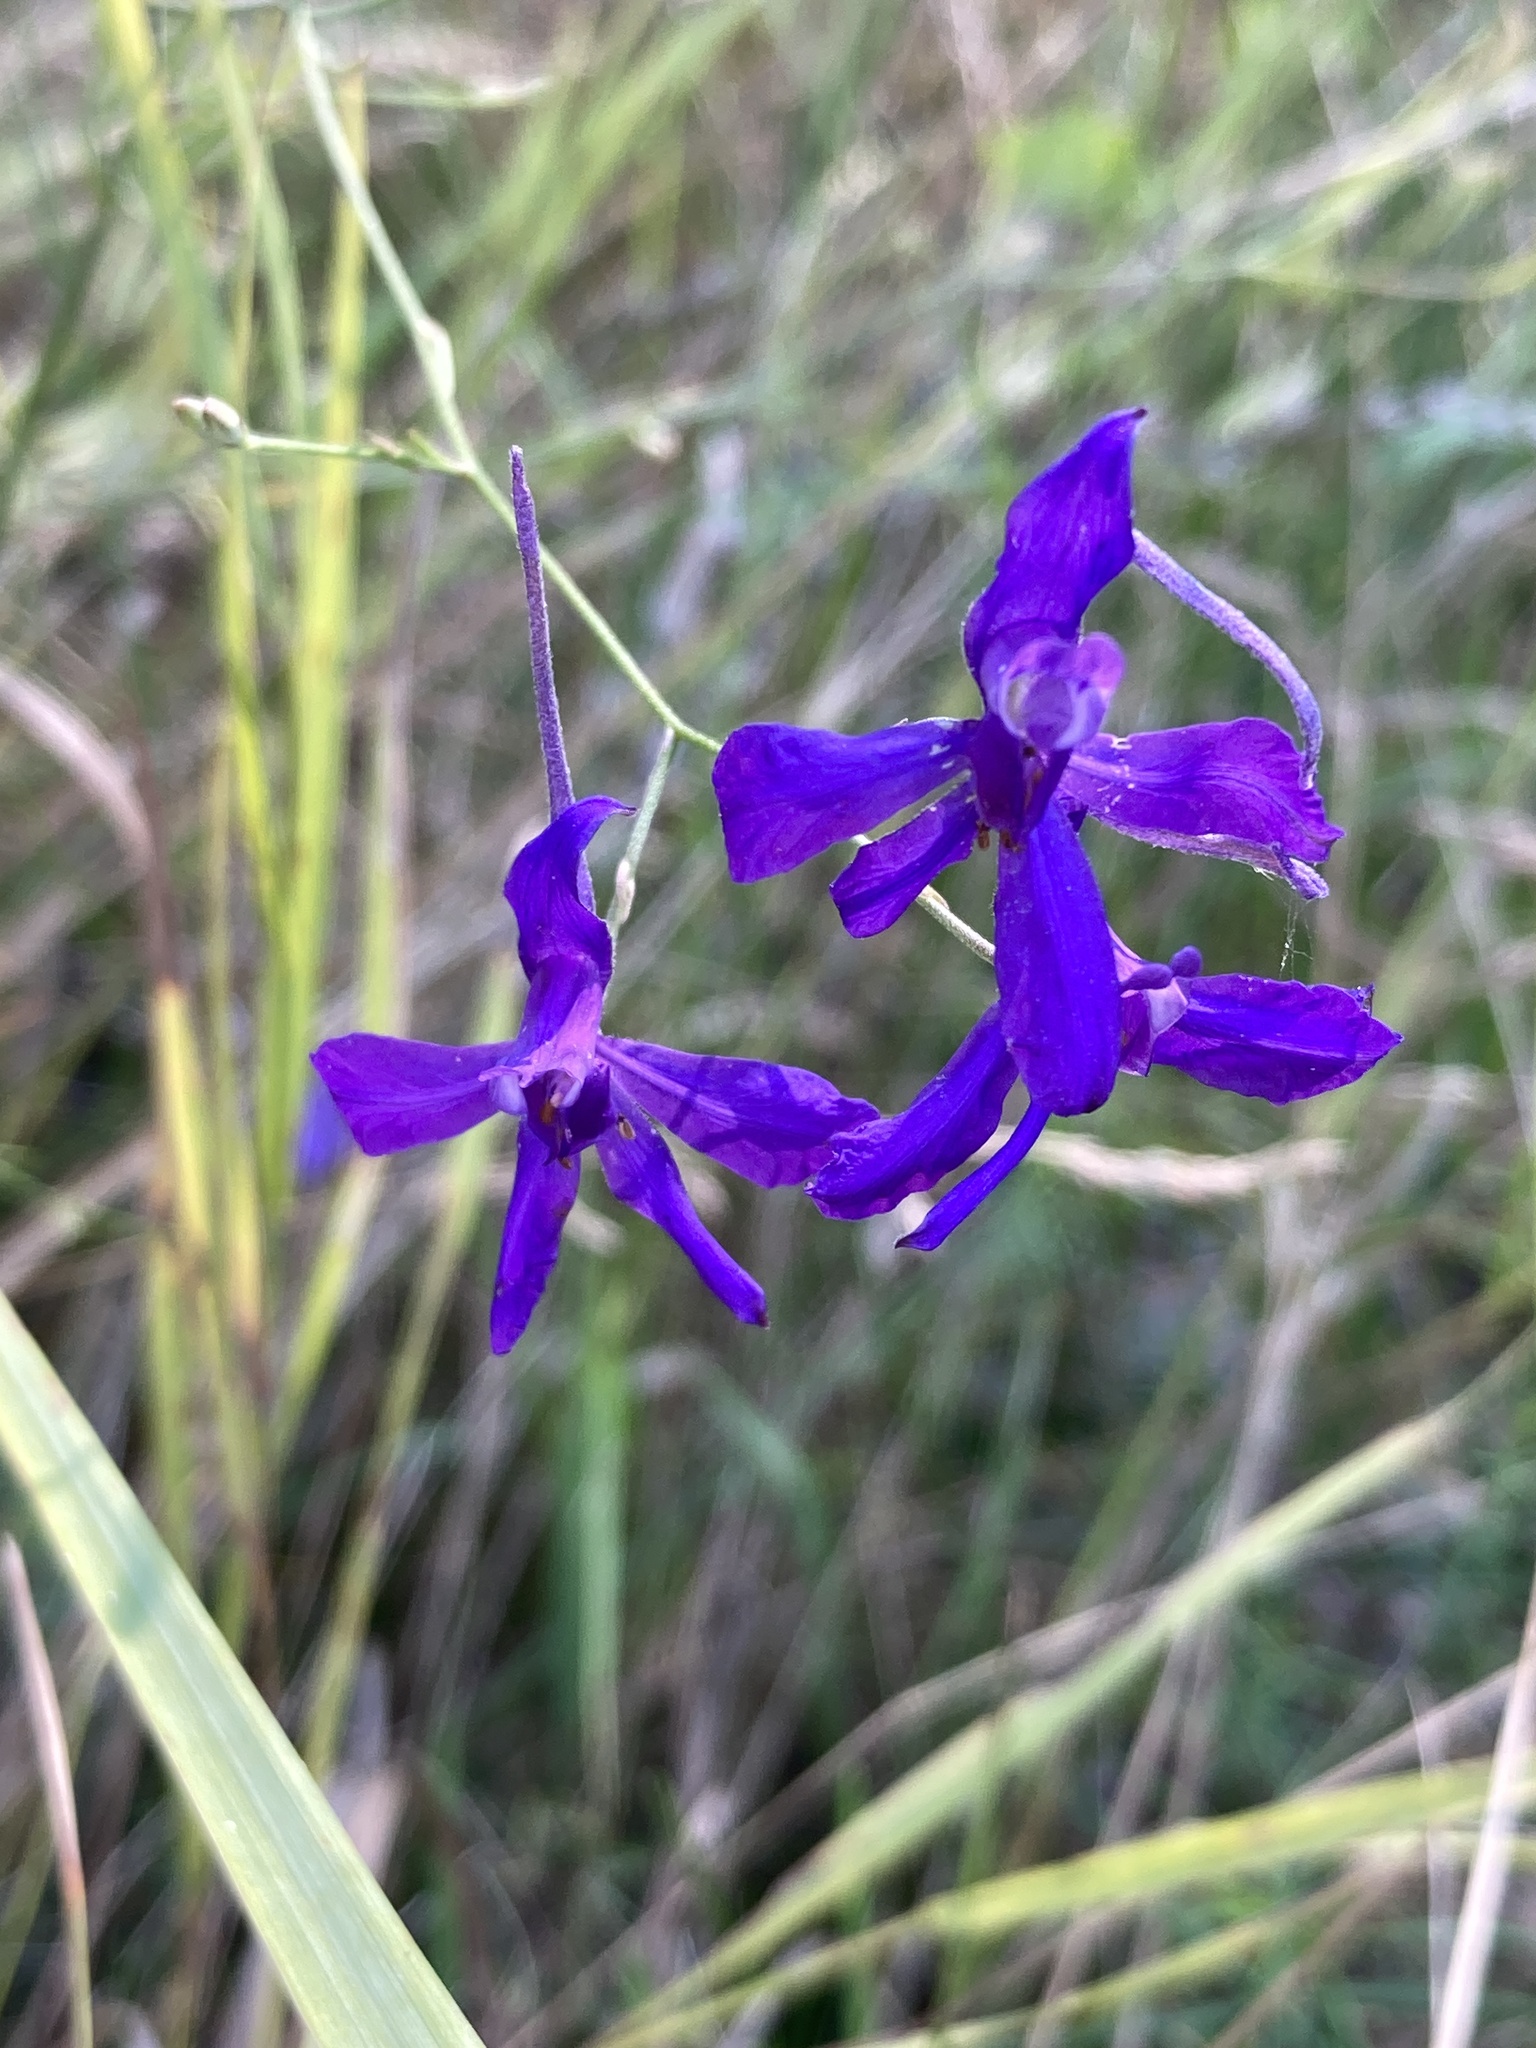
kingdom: Plantae
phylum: Tracheophyta
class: Magnoliopsida
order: Ranunculales
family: Ranunculaceae
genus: Delphinium
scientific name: Delphinium consolida
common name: Branching larkspur
